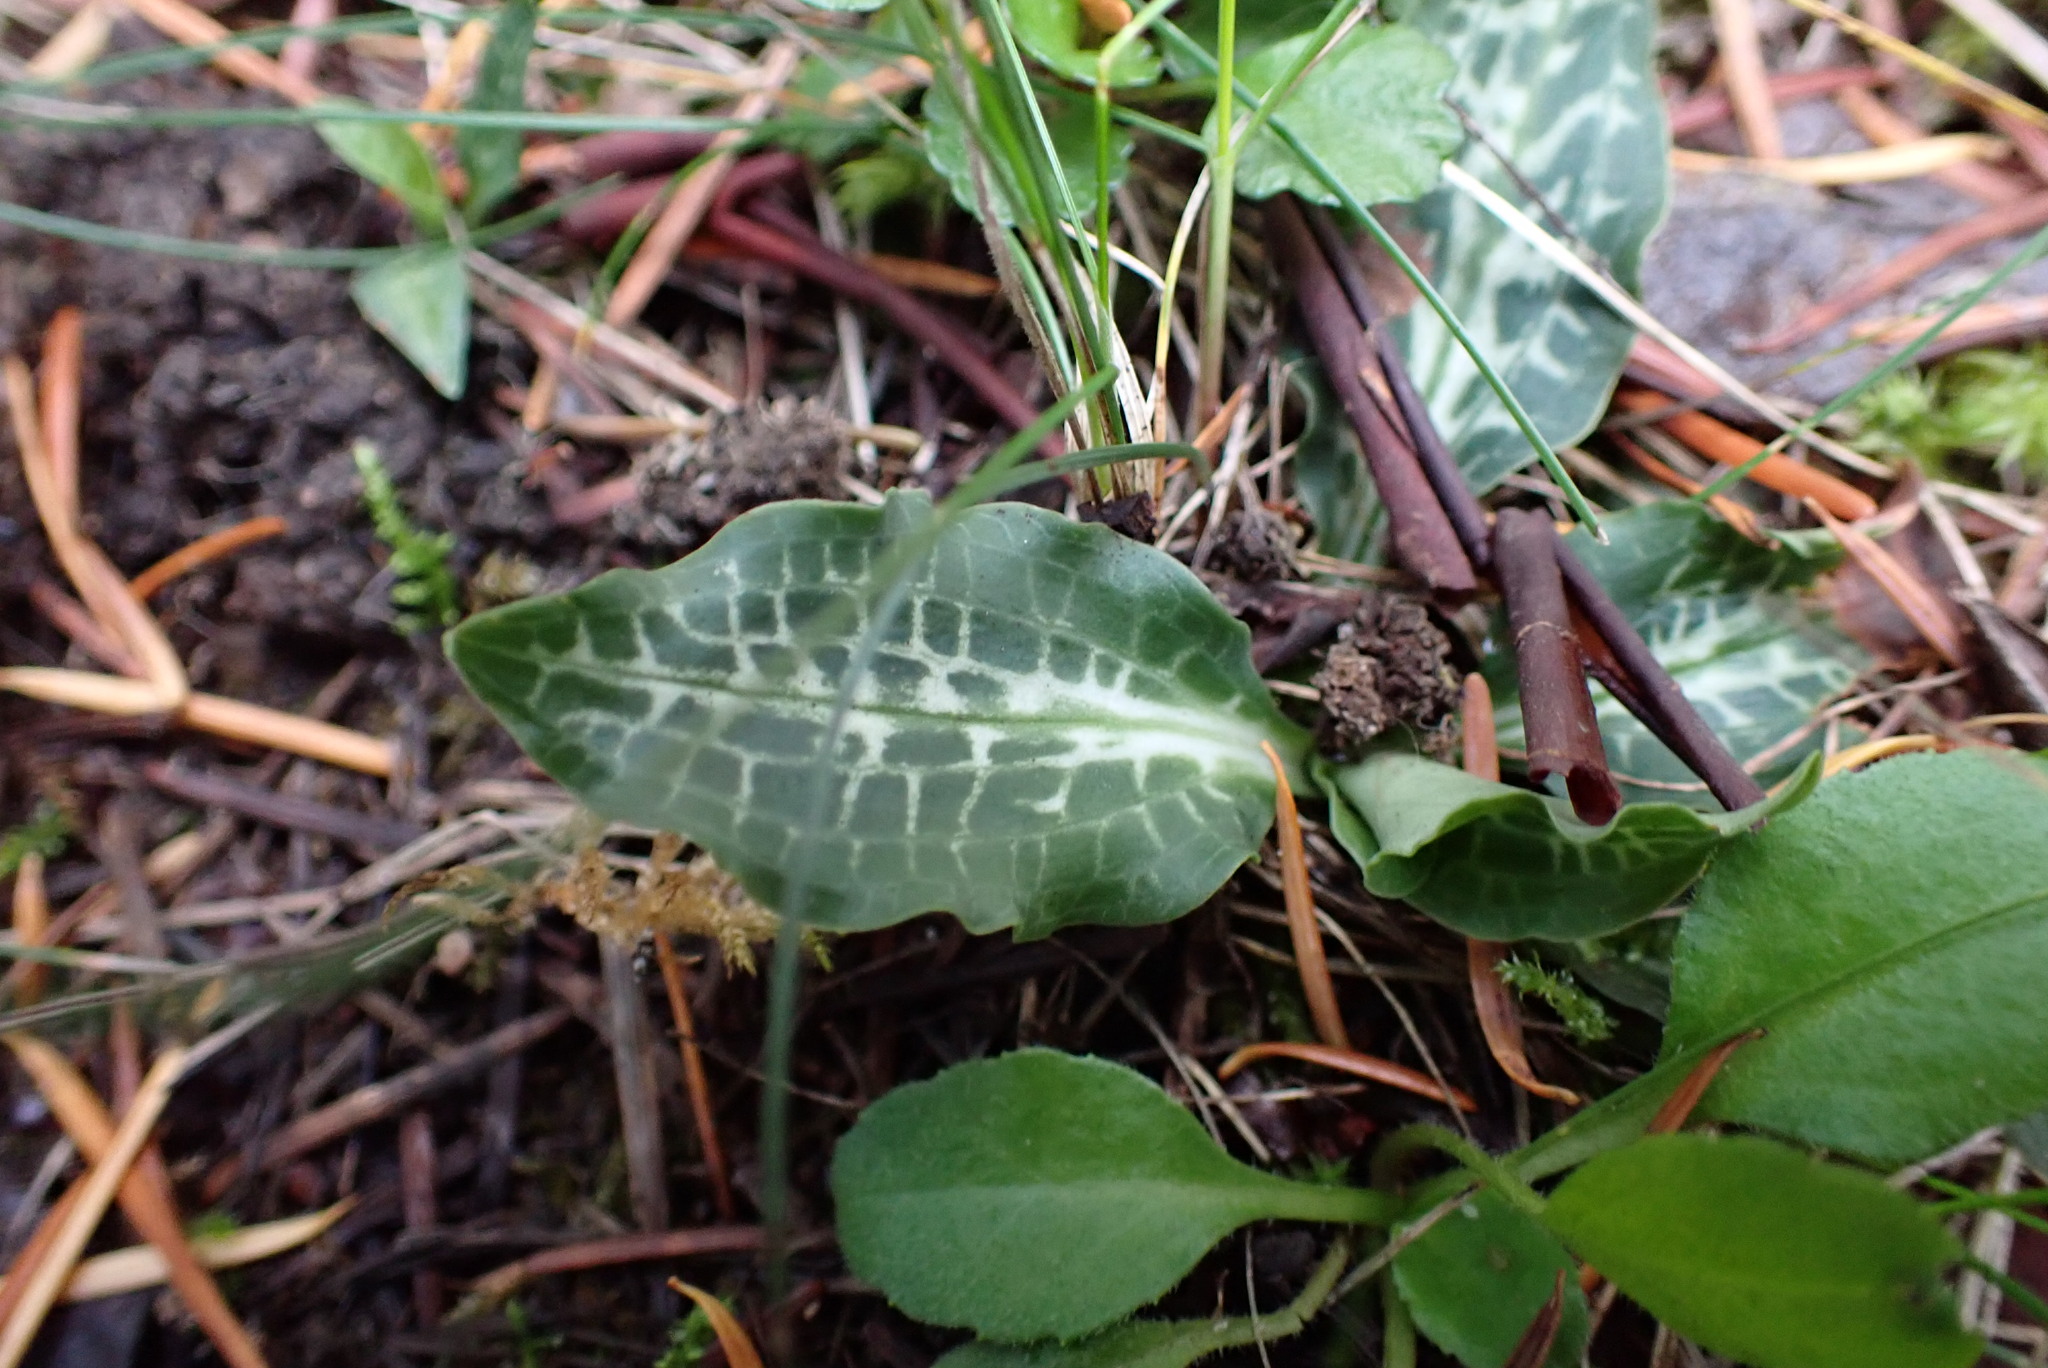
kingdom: Plantae
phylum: Tracheophyta
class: Liliopsida
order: Asparagales
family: Orchidaceae
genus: Goodyera
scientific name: Goodyera oblongifolia
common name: Giant rattlesnake-plantain
